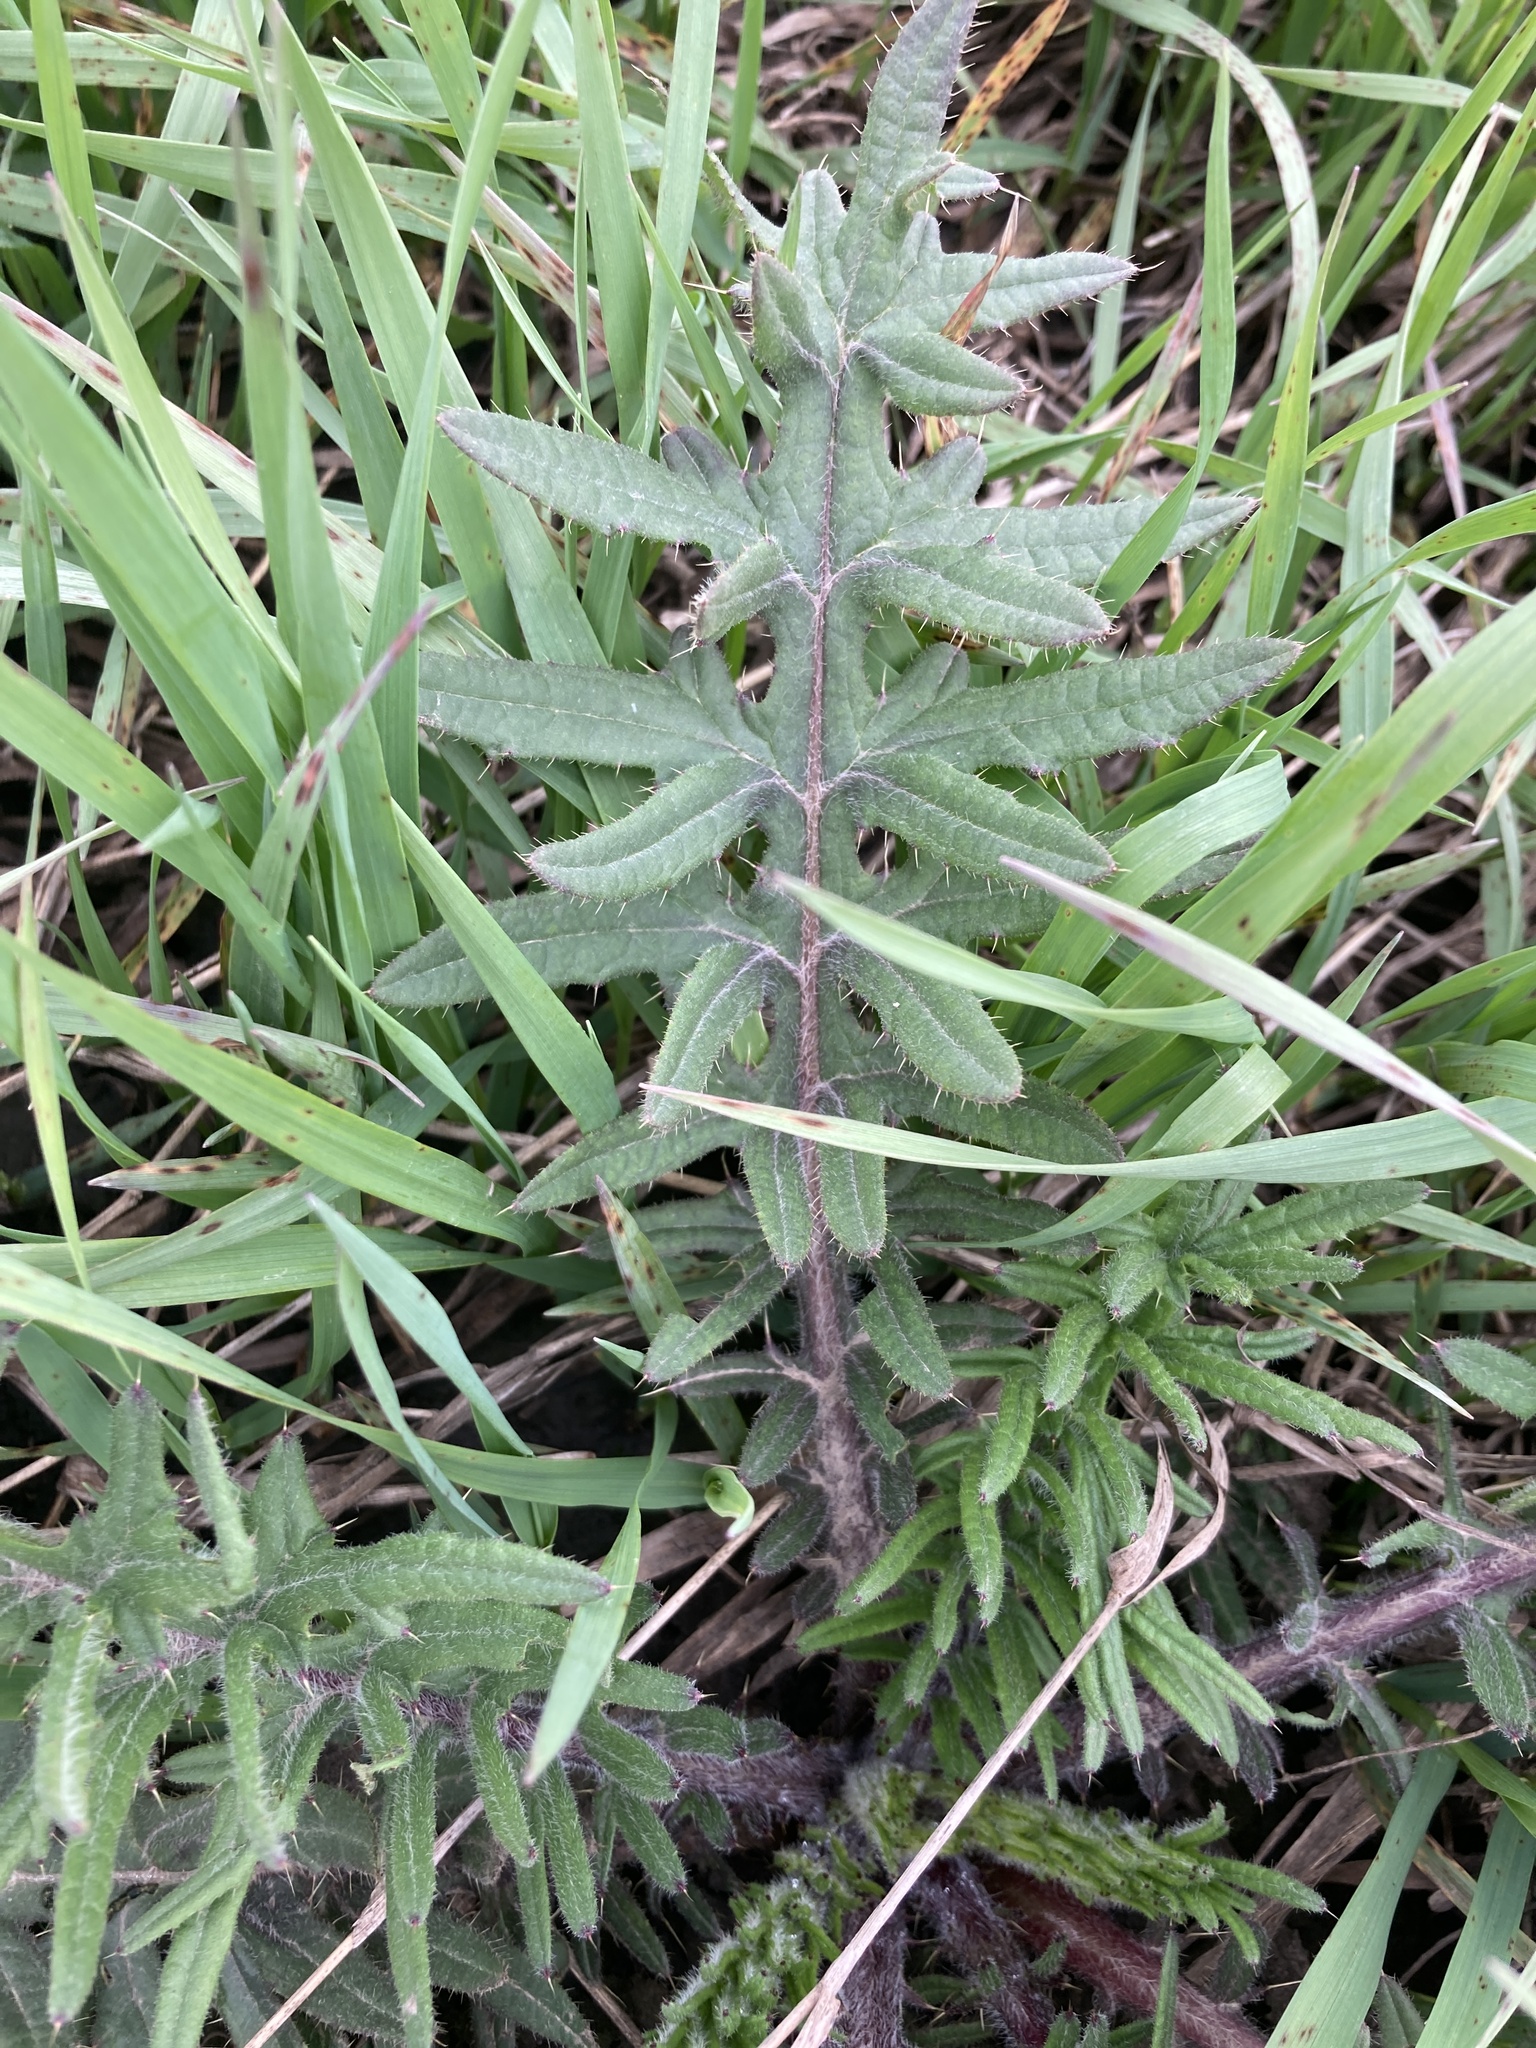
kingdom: Plantae
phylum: Tracheophyta
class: Magnoliopsida
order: Asterales
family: Asteraceae
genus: Cirsium
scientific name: Cirsium serrulatum
